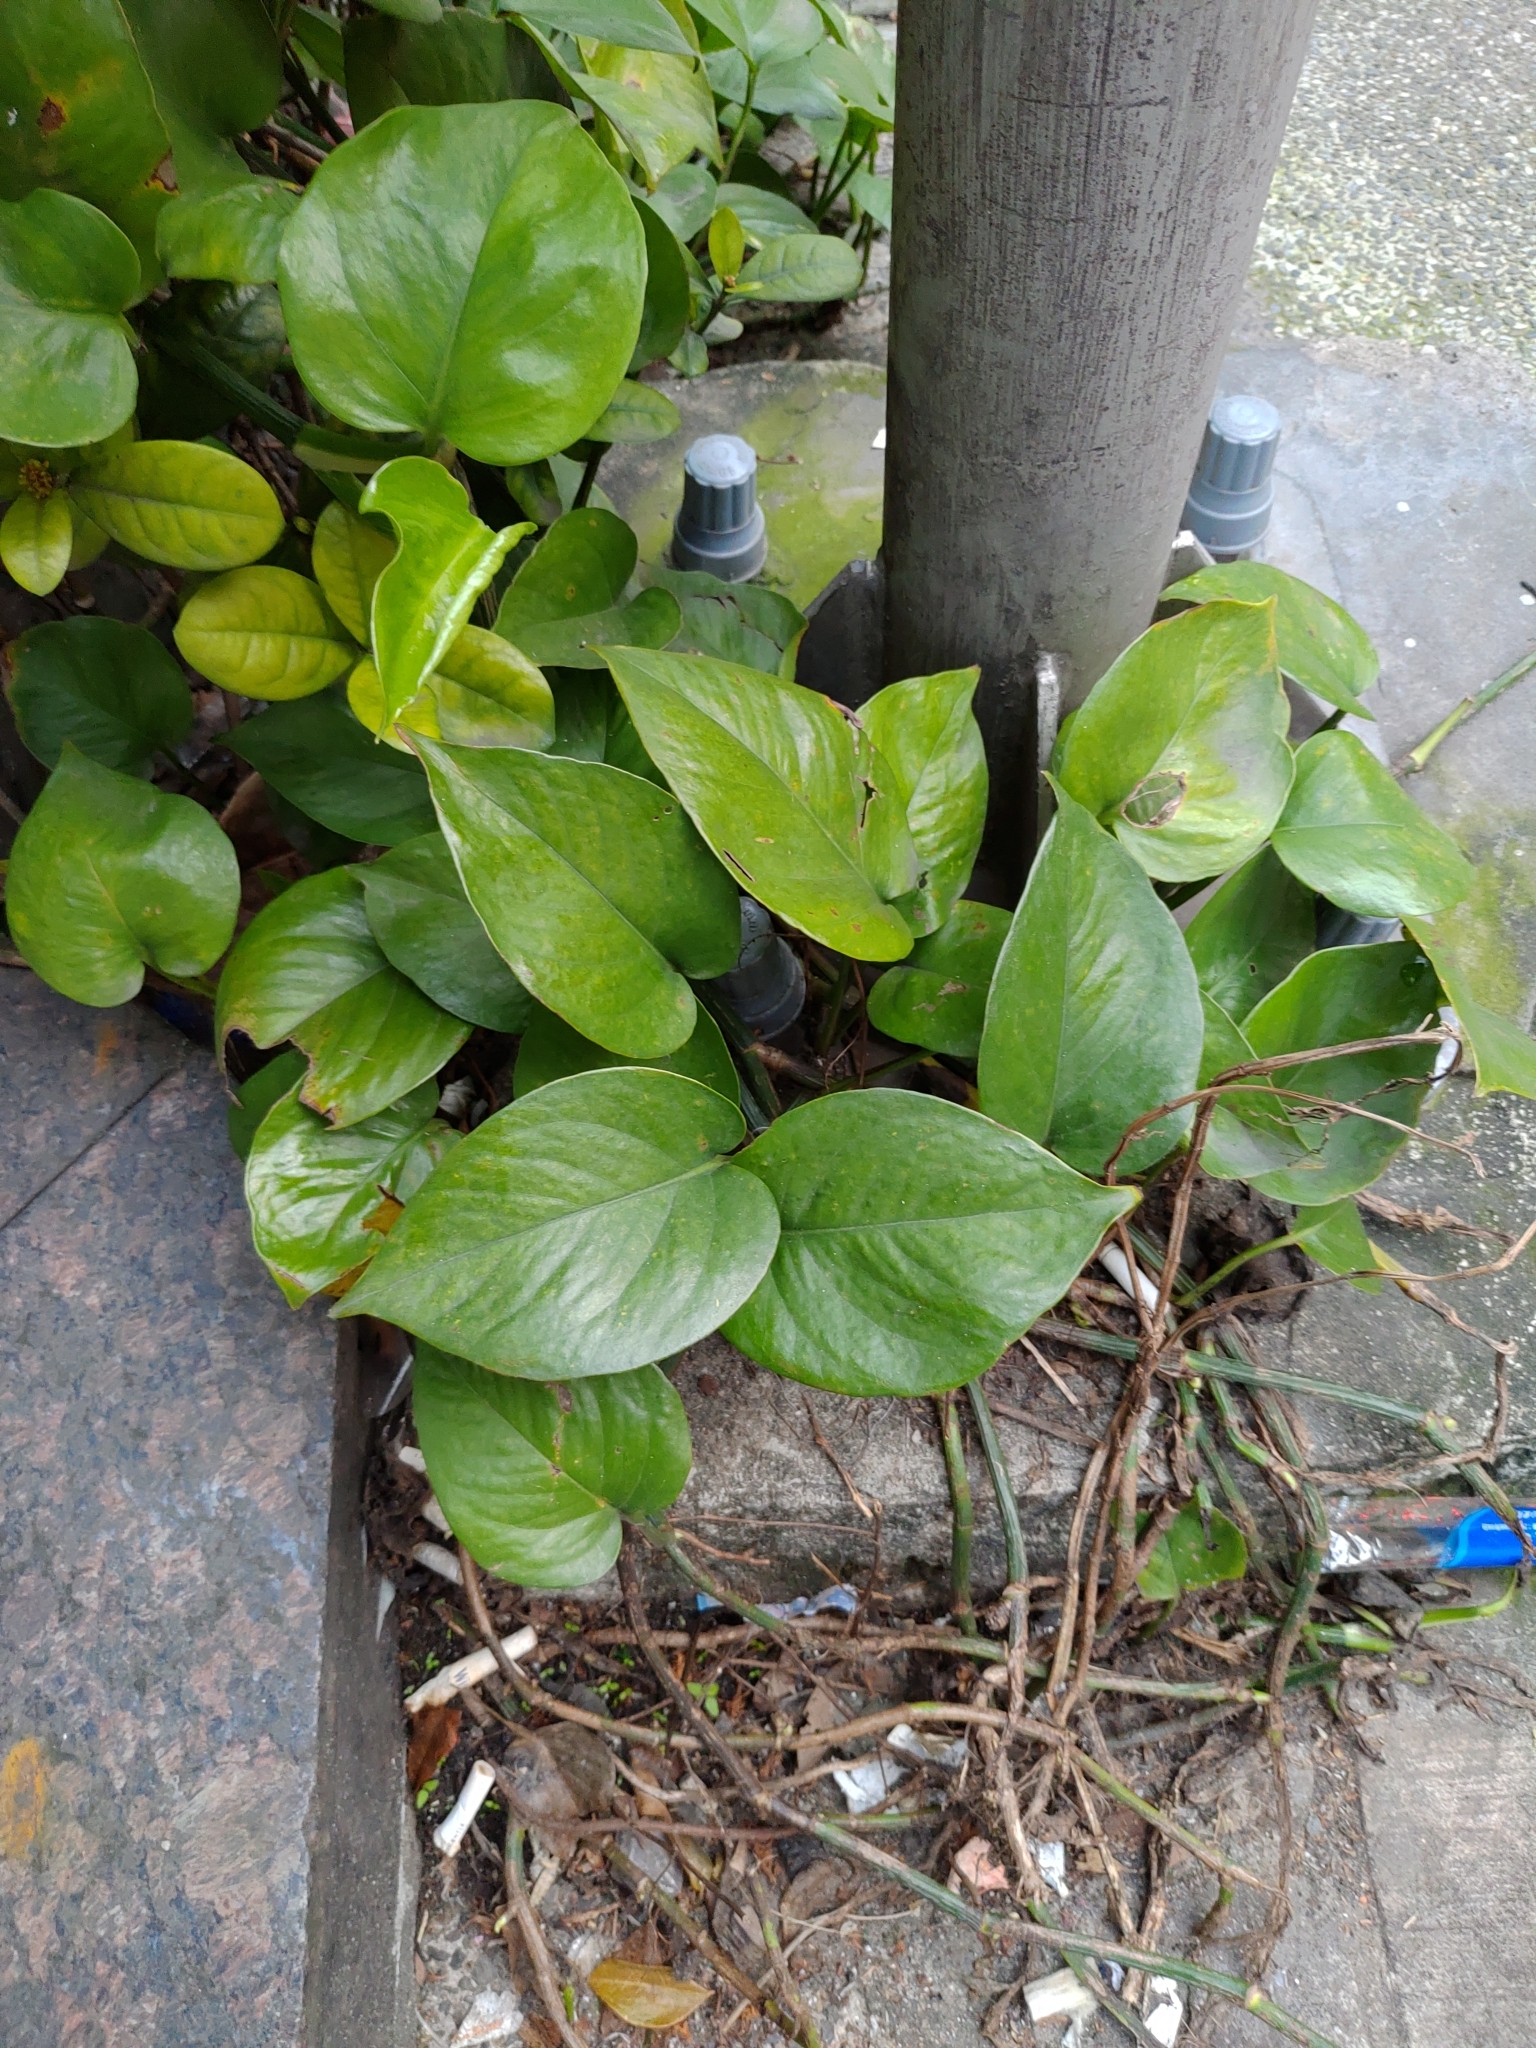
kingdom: Plantae
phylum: Tracheophyta
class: Liliopsida
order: Alismatales
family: Araceae
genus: Epipremnum
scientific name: Epipremnum aureum
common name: Golden hunter's-robe
